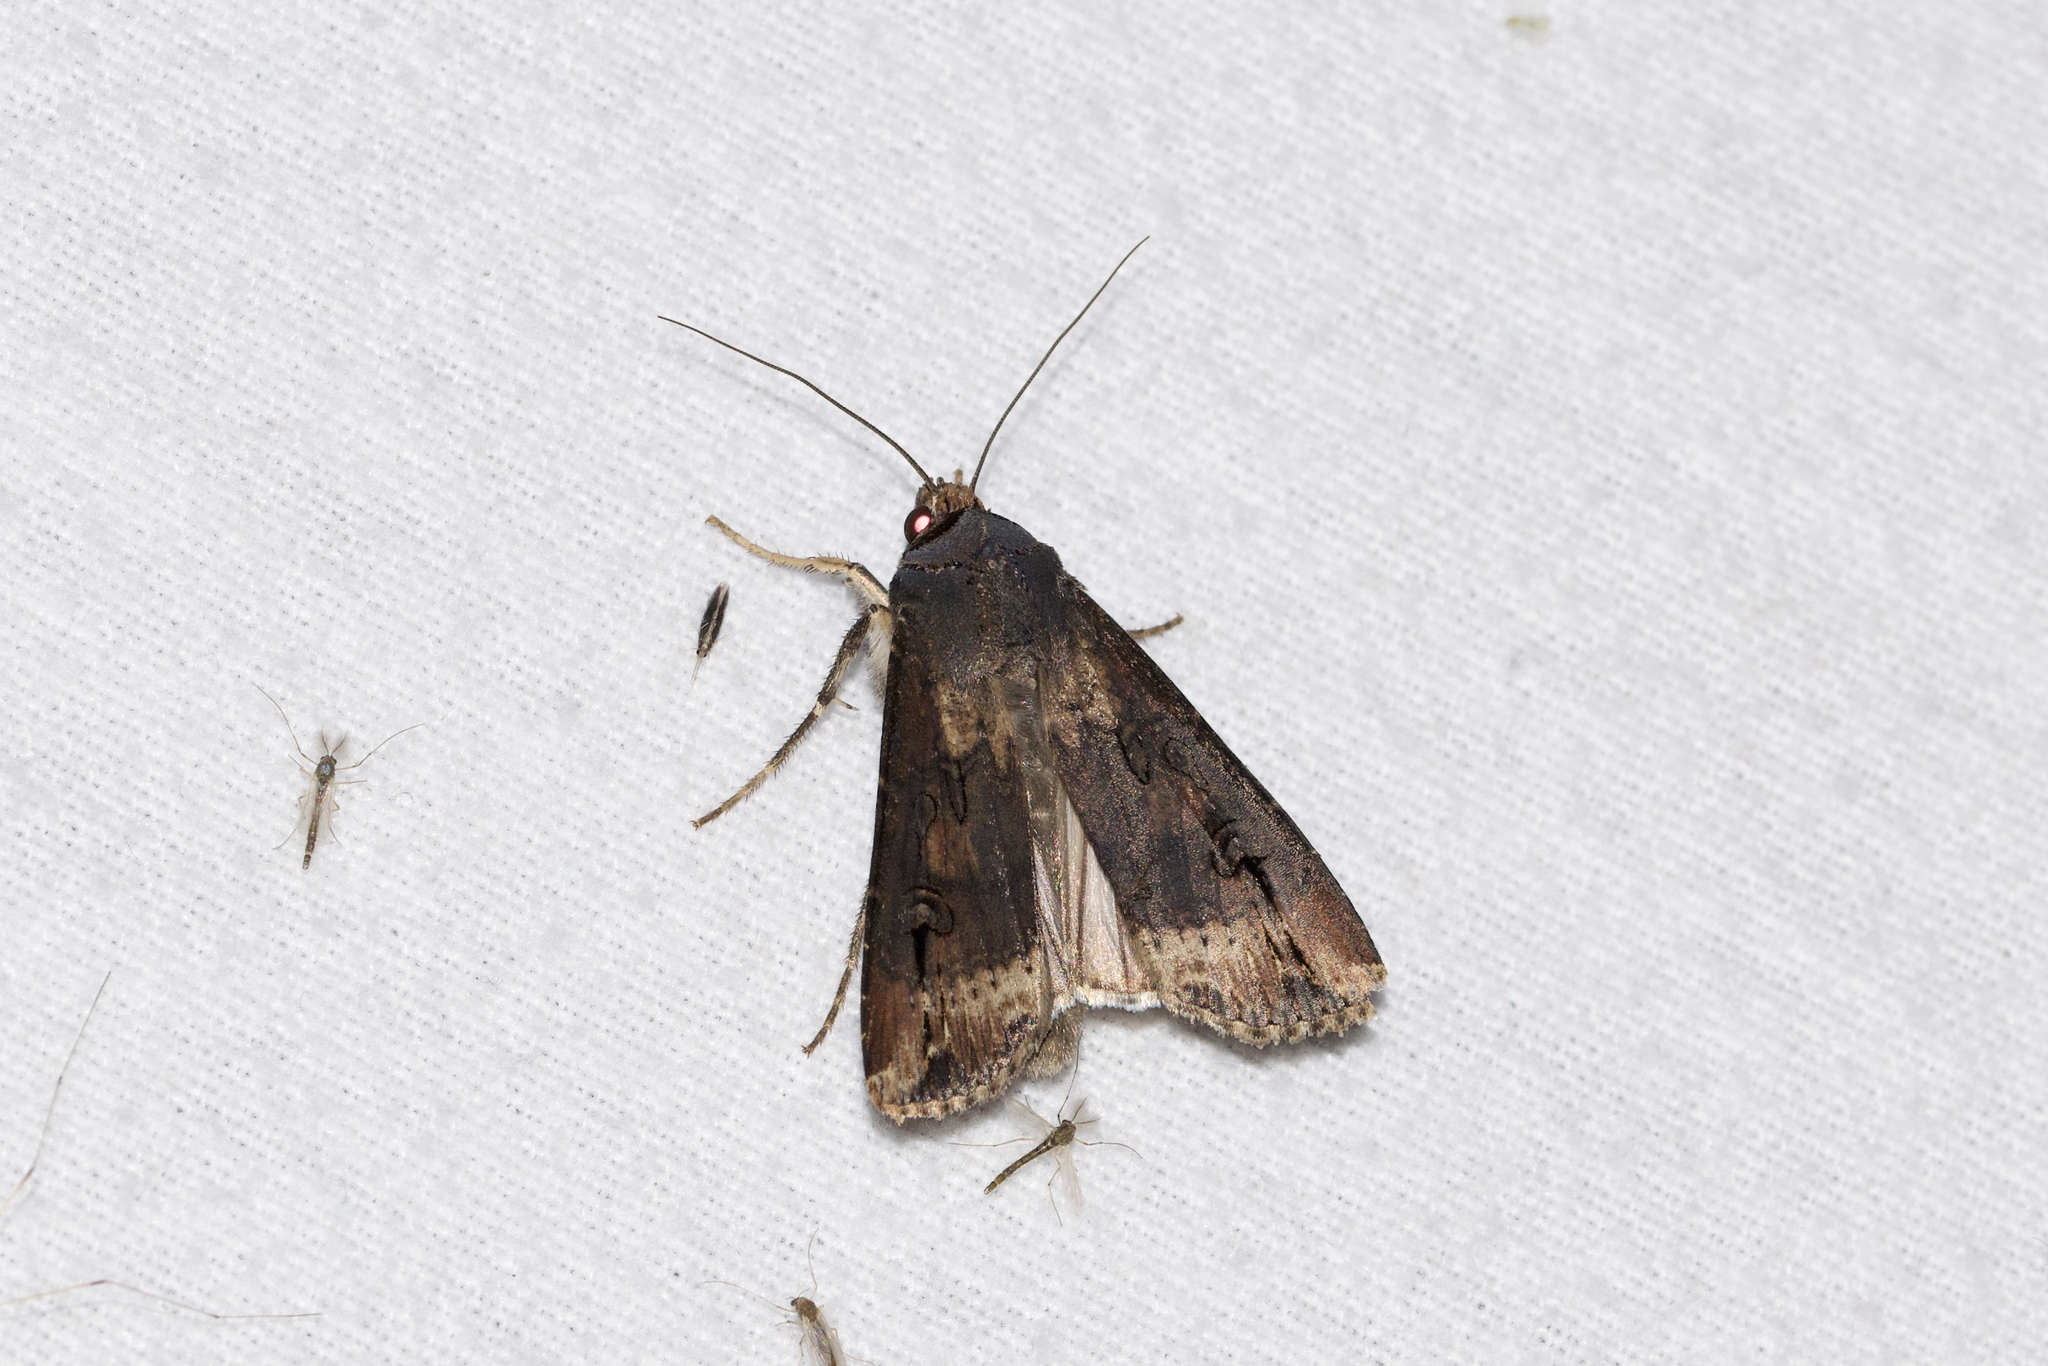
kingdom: Animalia
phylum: Arthropoda
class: Insecta
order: Lepidoptera
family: Noctuidae
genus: Agrotis
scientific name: Agrotis ipsilon
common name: Dark sword-grass
